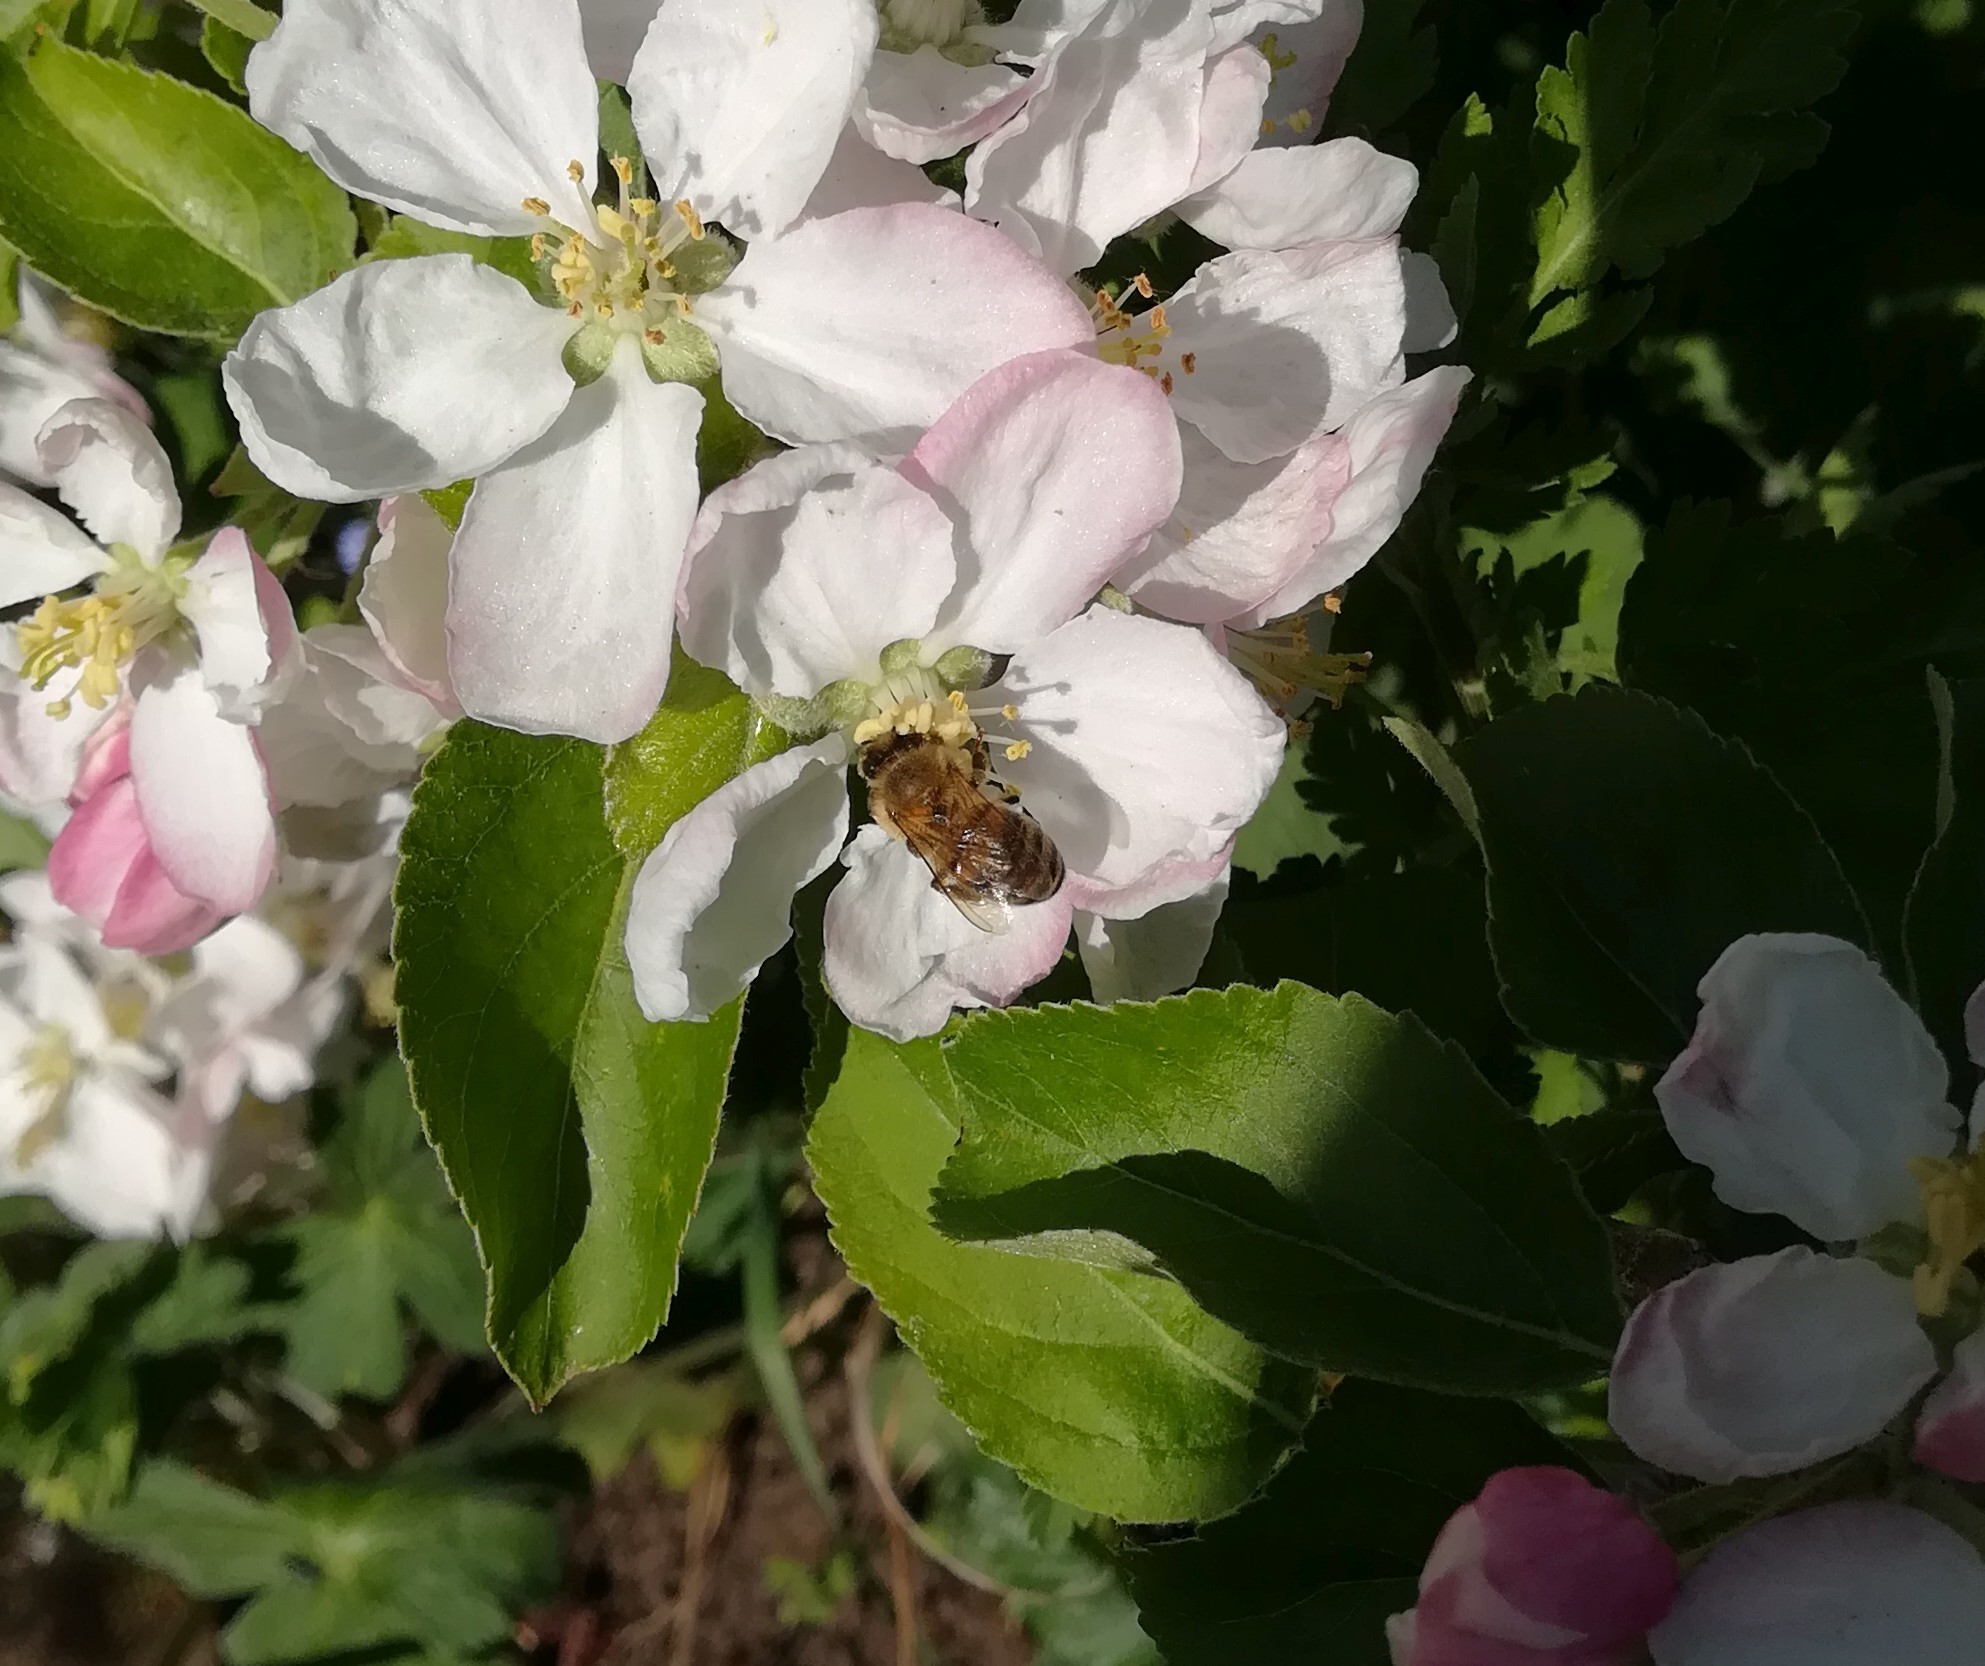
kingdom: Animalia
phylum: Arthropoda
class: Insecta
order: Hymenoptera
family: Apidae
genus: Apis
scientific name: Apis mellifera
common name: Honey bee
